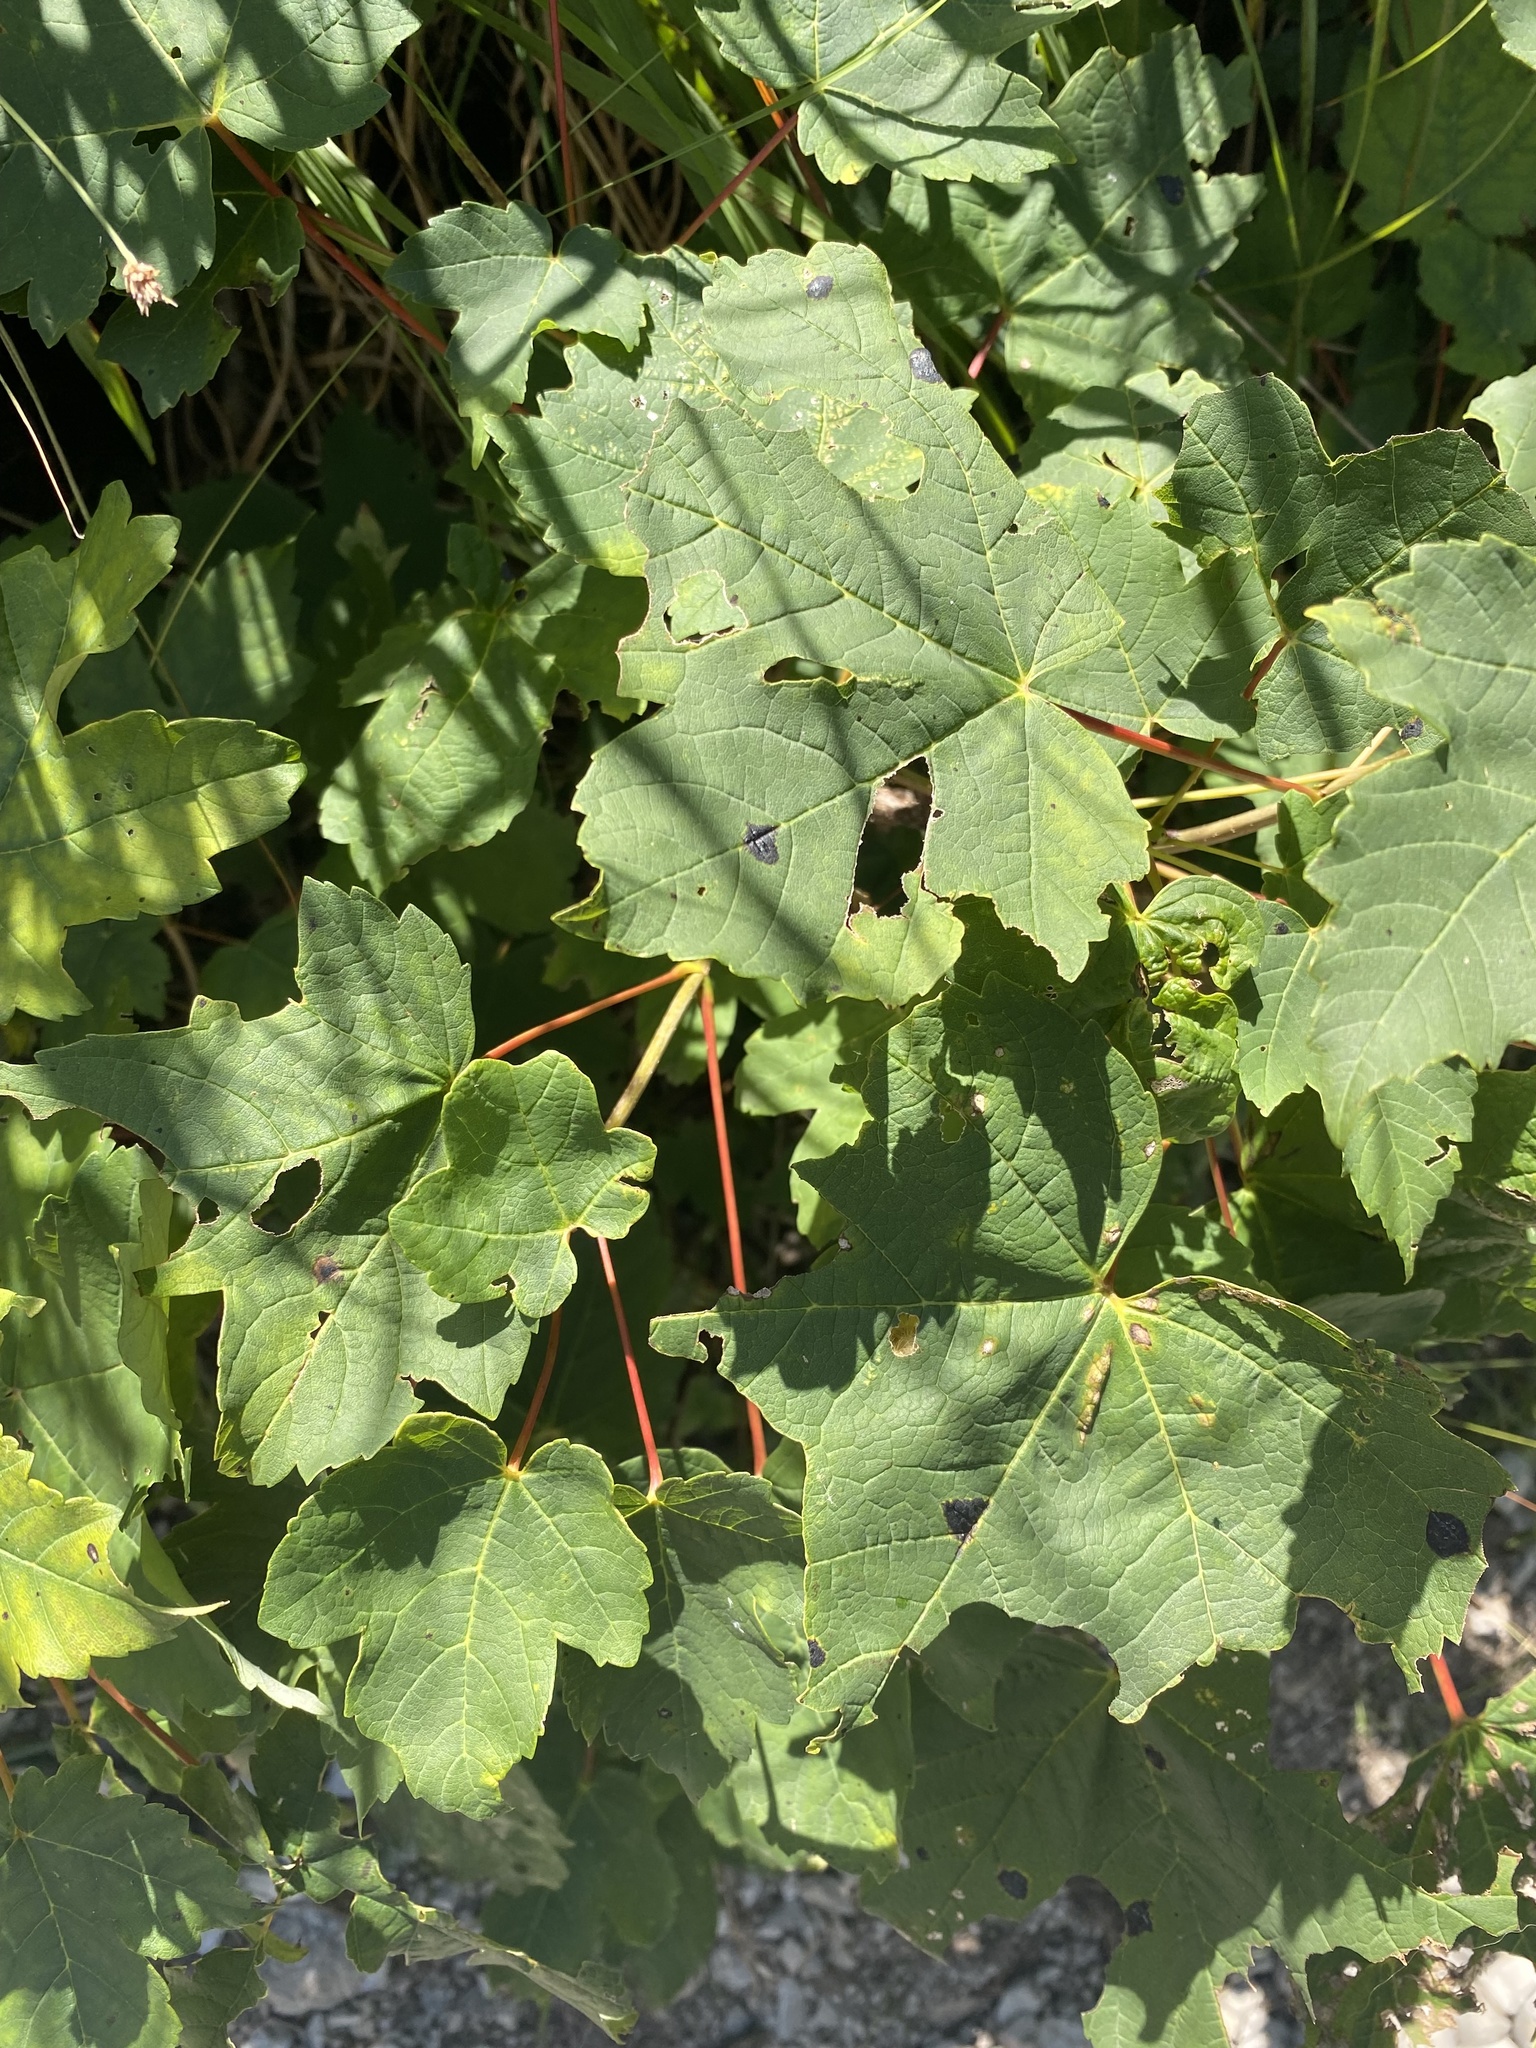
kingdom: Plantae
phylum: Tracheophyta
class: Magnoliopsida
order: Sapindales
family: Sapindaceae
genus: Acer
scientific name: Acer pseudoplatanus
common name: Sycamore
